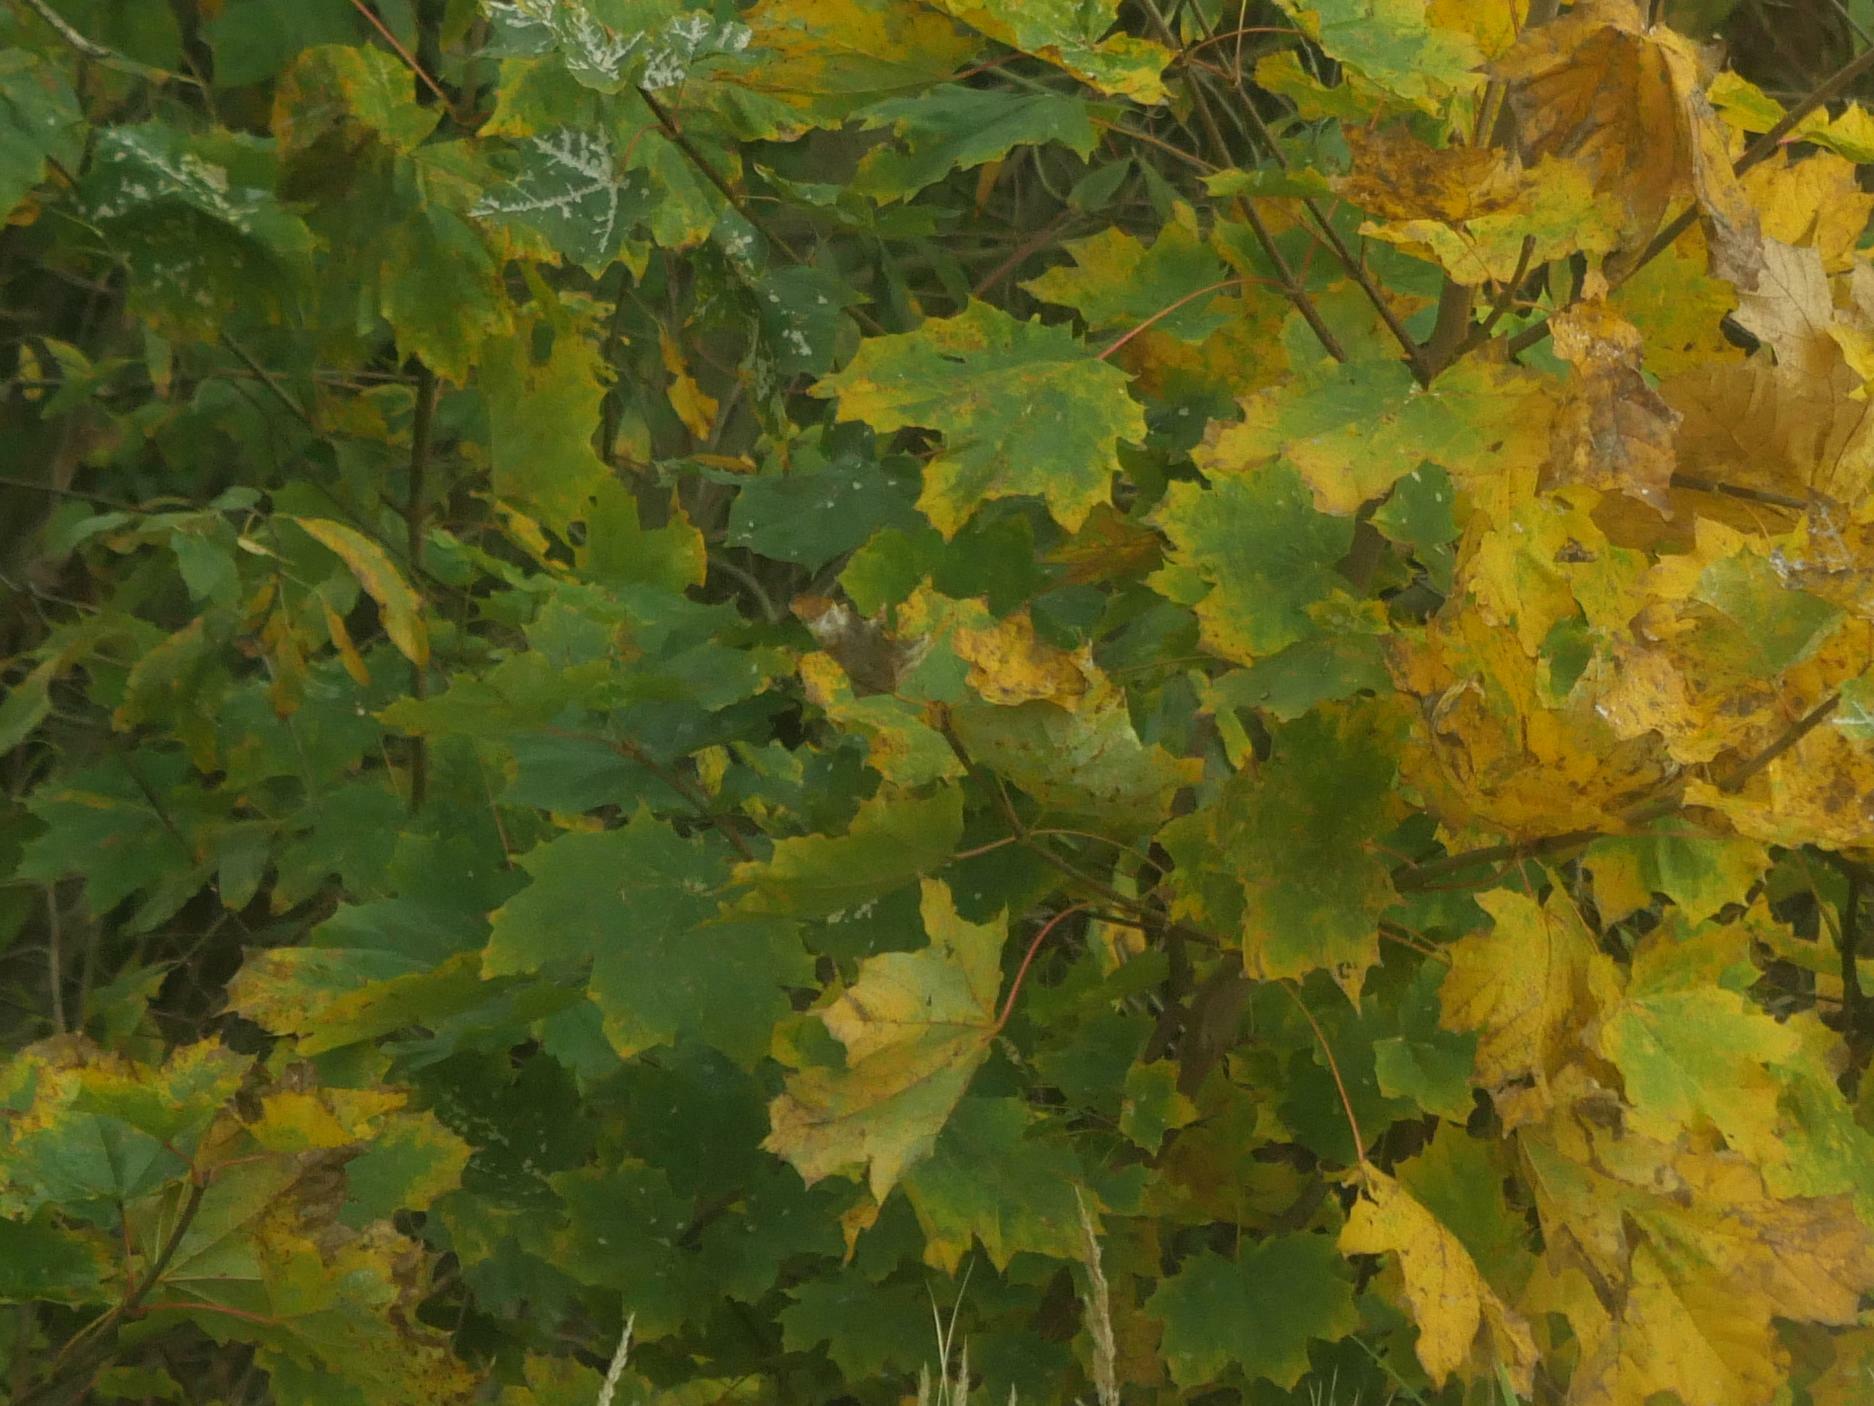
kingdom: Plantae
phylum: Tracheophyta
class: Magnoliopsida
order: Sapindales
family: Sapindaceae
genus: Acer
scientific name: Acer platanoides
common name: Norway maple
